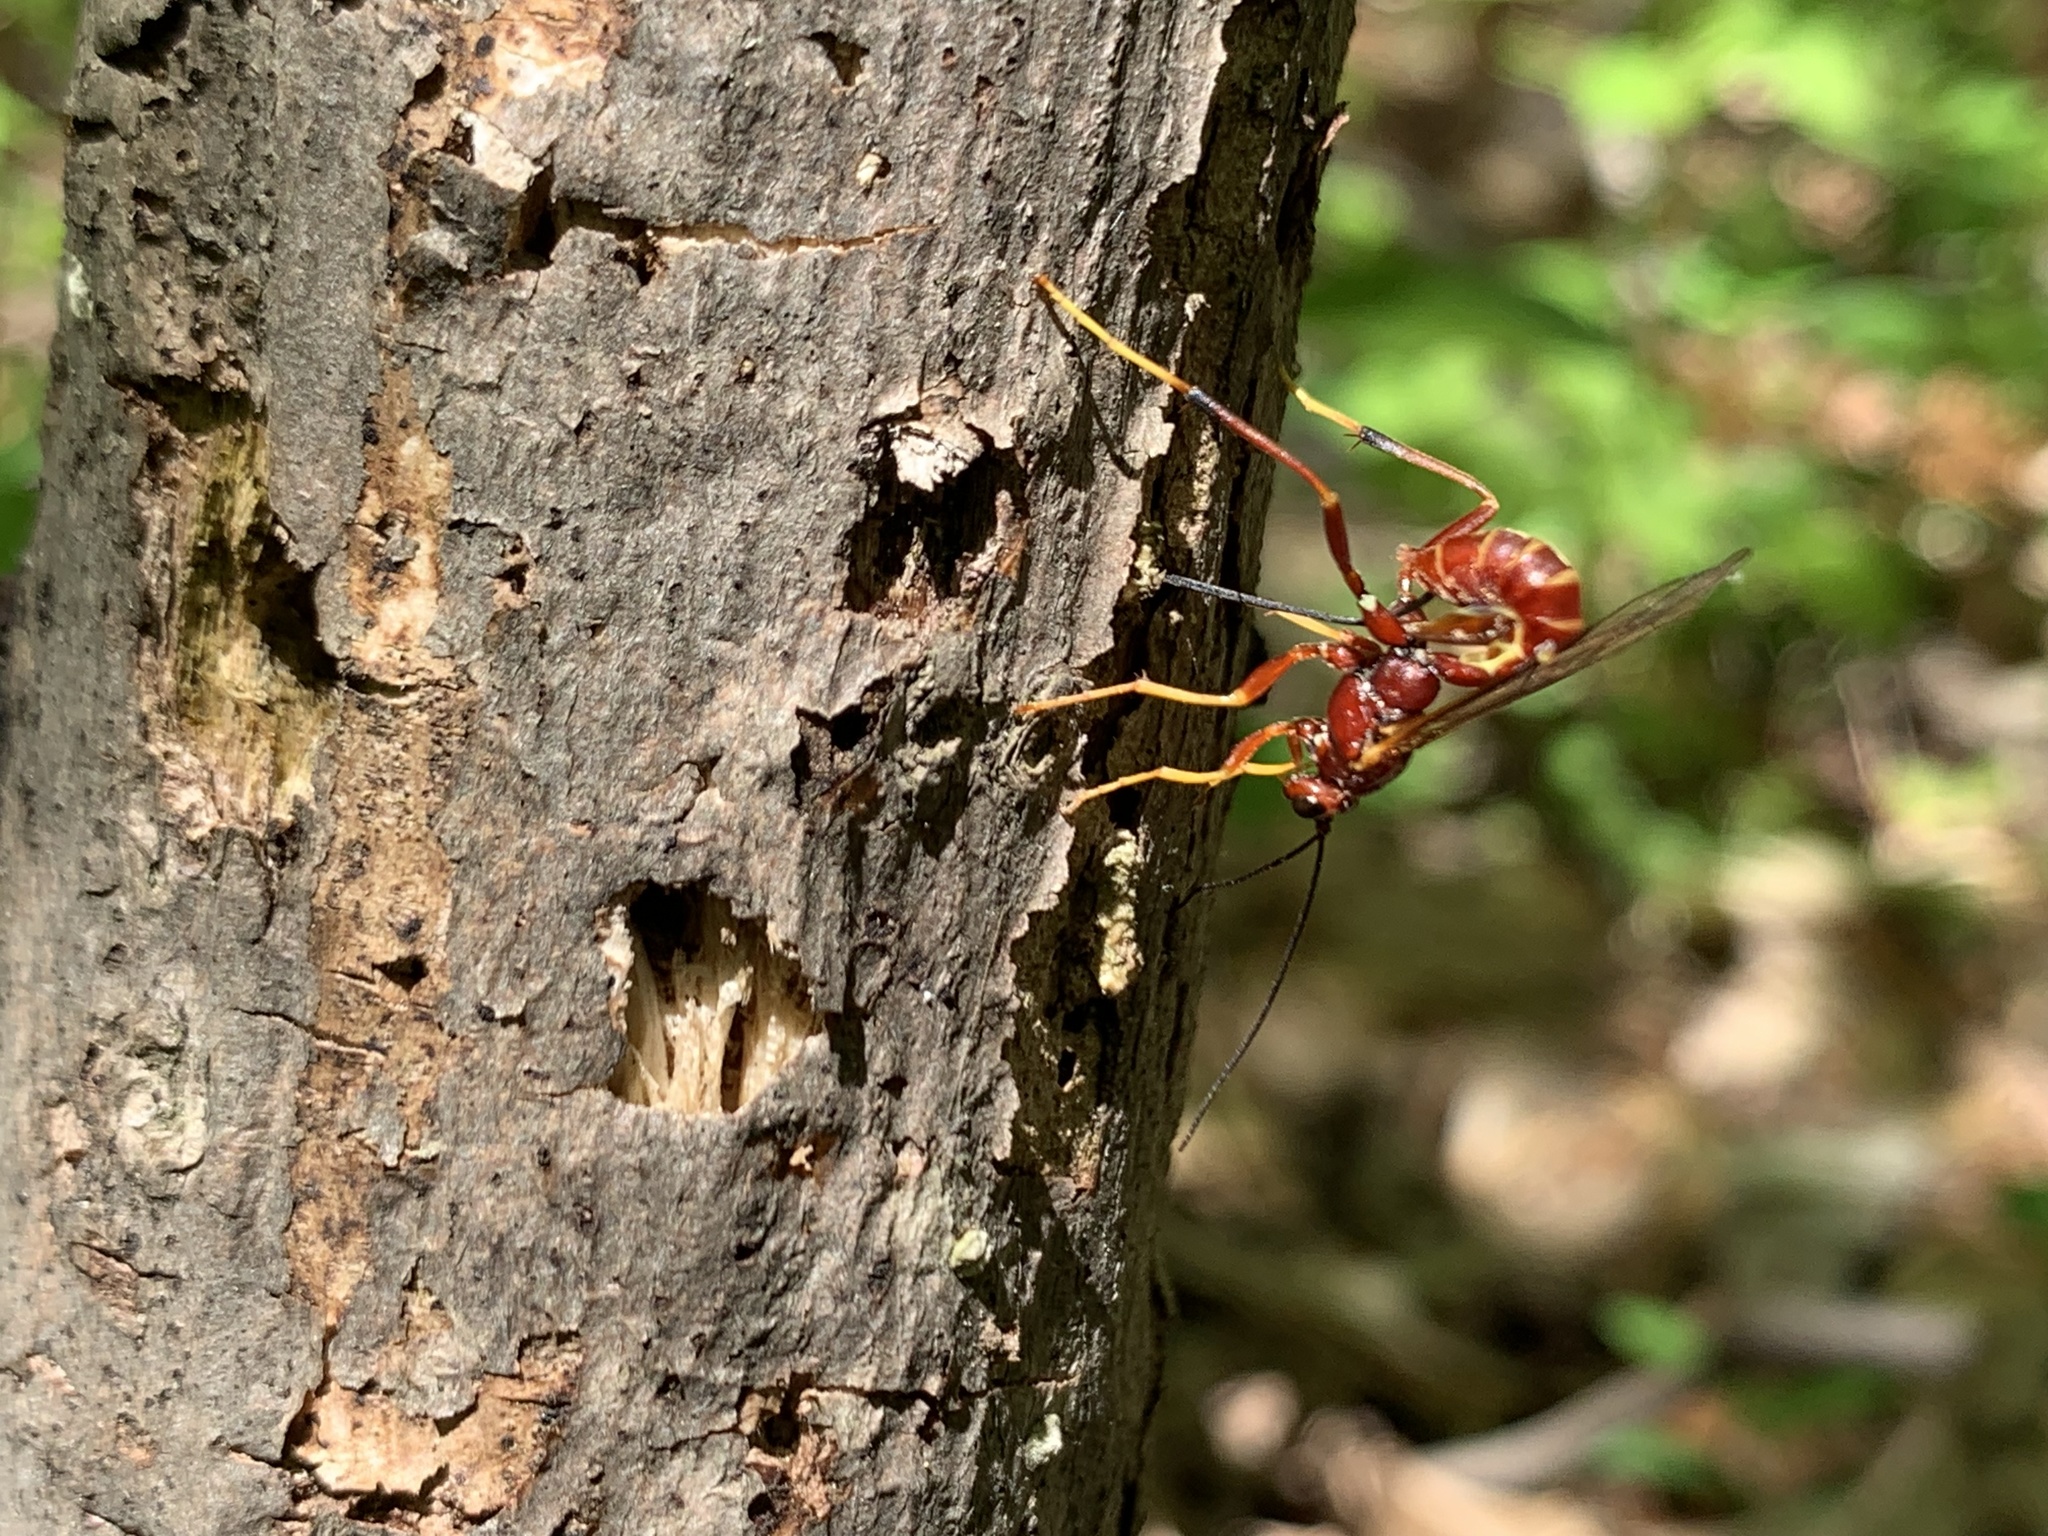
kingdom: Animalia
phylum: Arthropoda
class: Insecta
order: Hymenoptera
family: Ichneumonidae
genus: Coleocentrus
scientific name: Coleocentrus rufus
